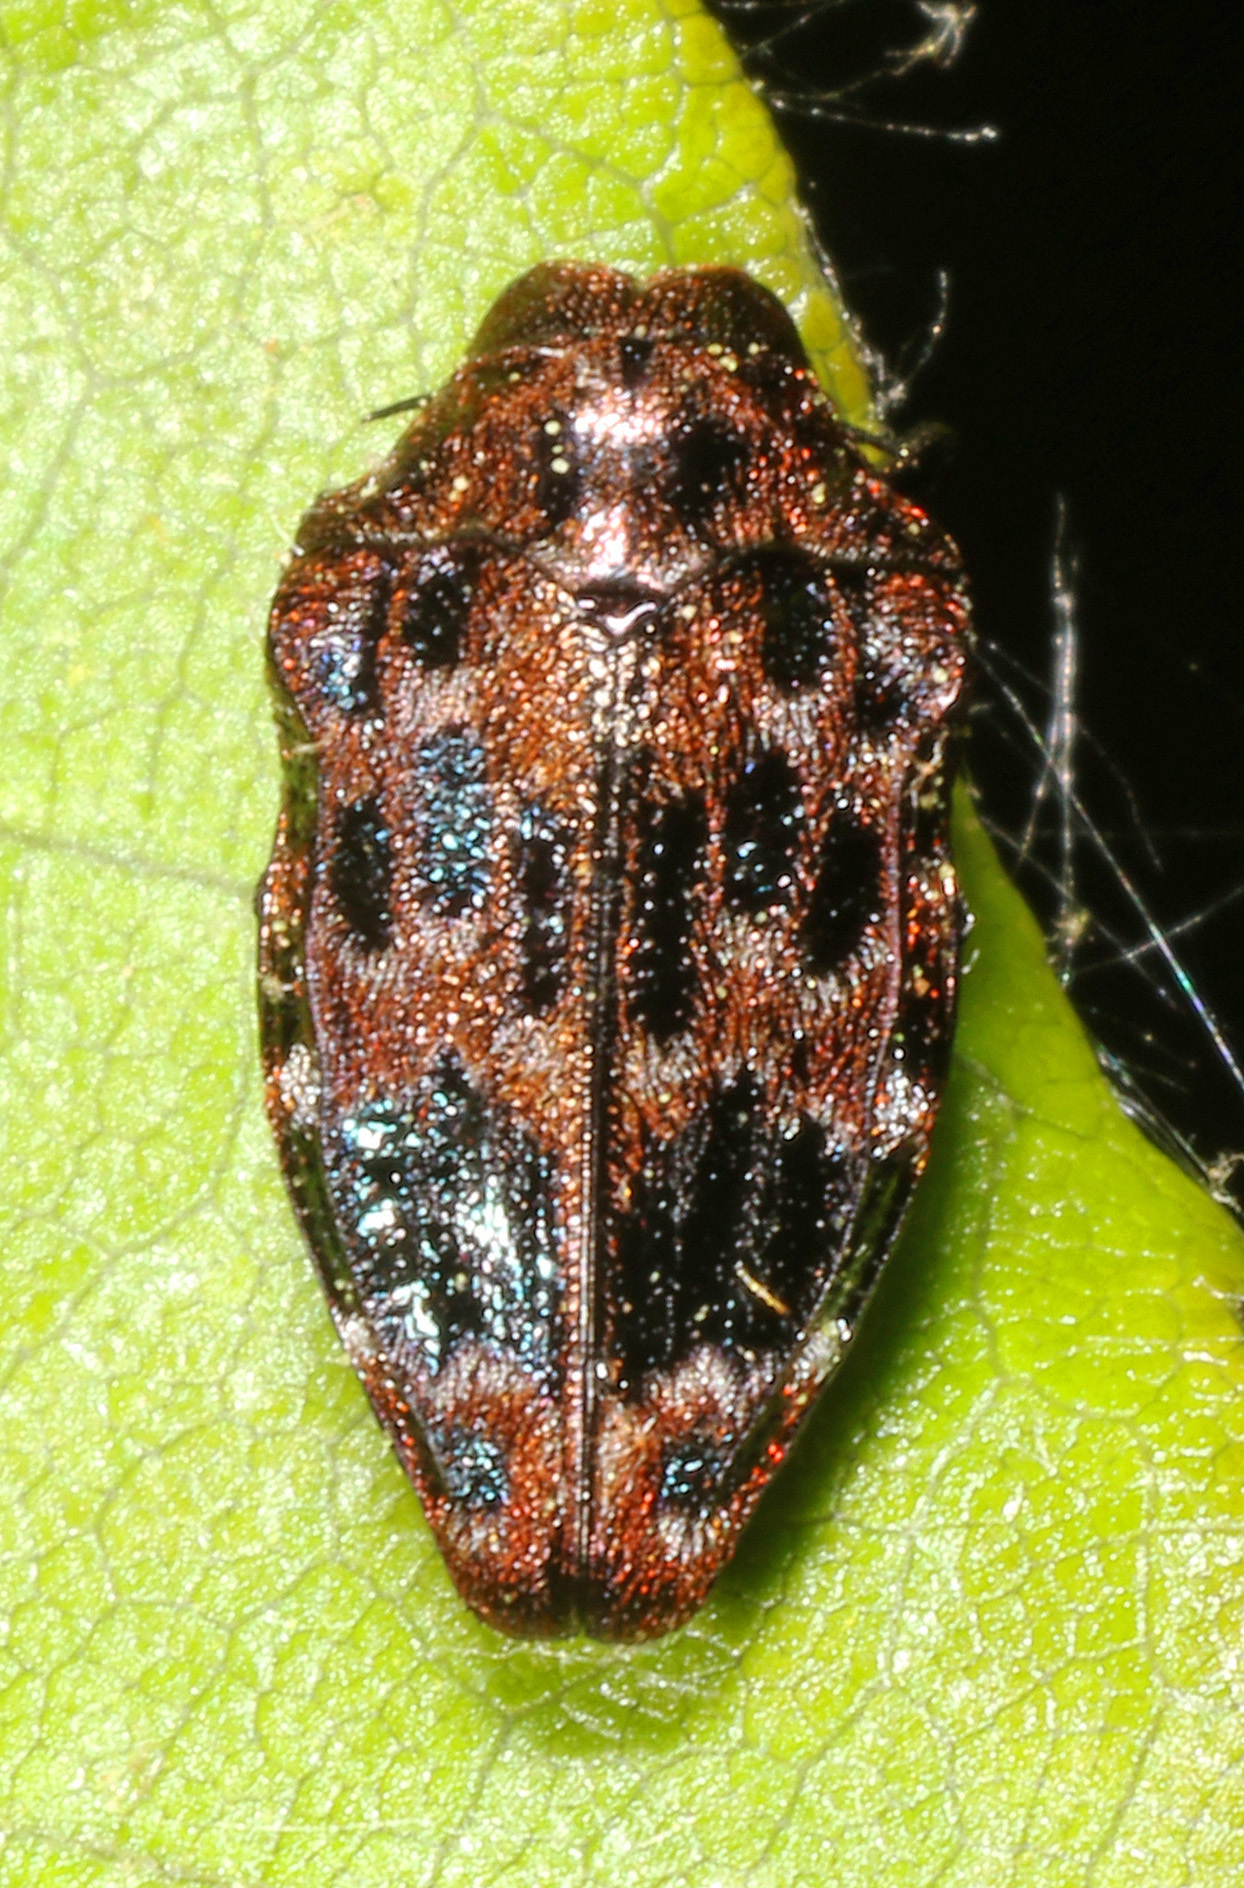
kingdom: Animalia
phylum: Arthropoda
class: Insecta
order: Coleoptera
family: Buprestidae
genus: Brachys
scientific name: Brachys ovatus
